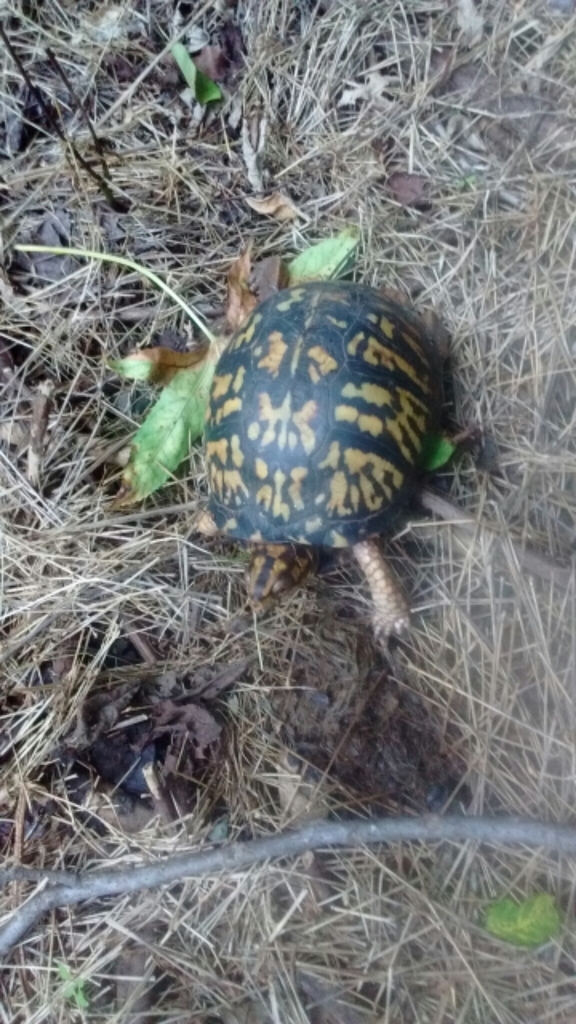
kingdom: Animalia
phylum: Chordata
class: Testudines
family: Emydidae
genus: Terrapene
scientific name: Terrapene carolina
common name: Common box turtle
